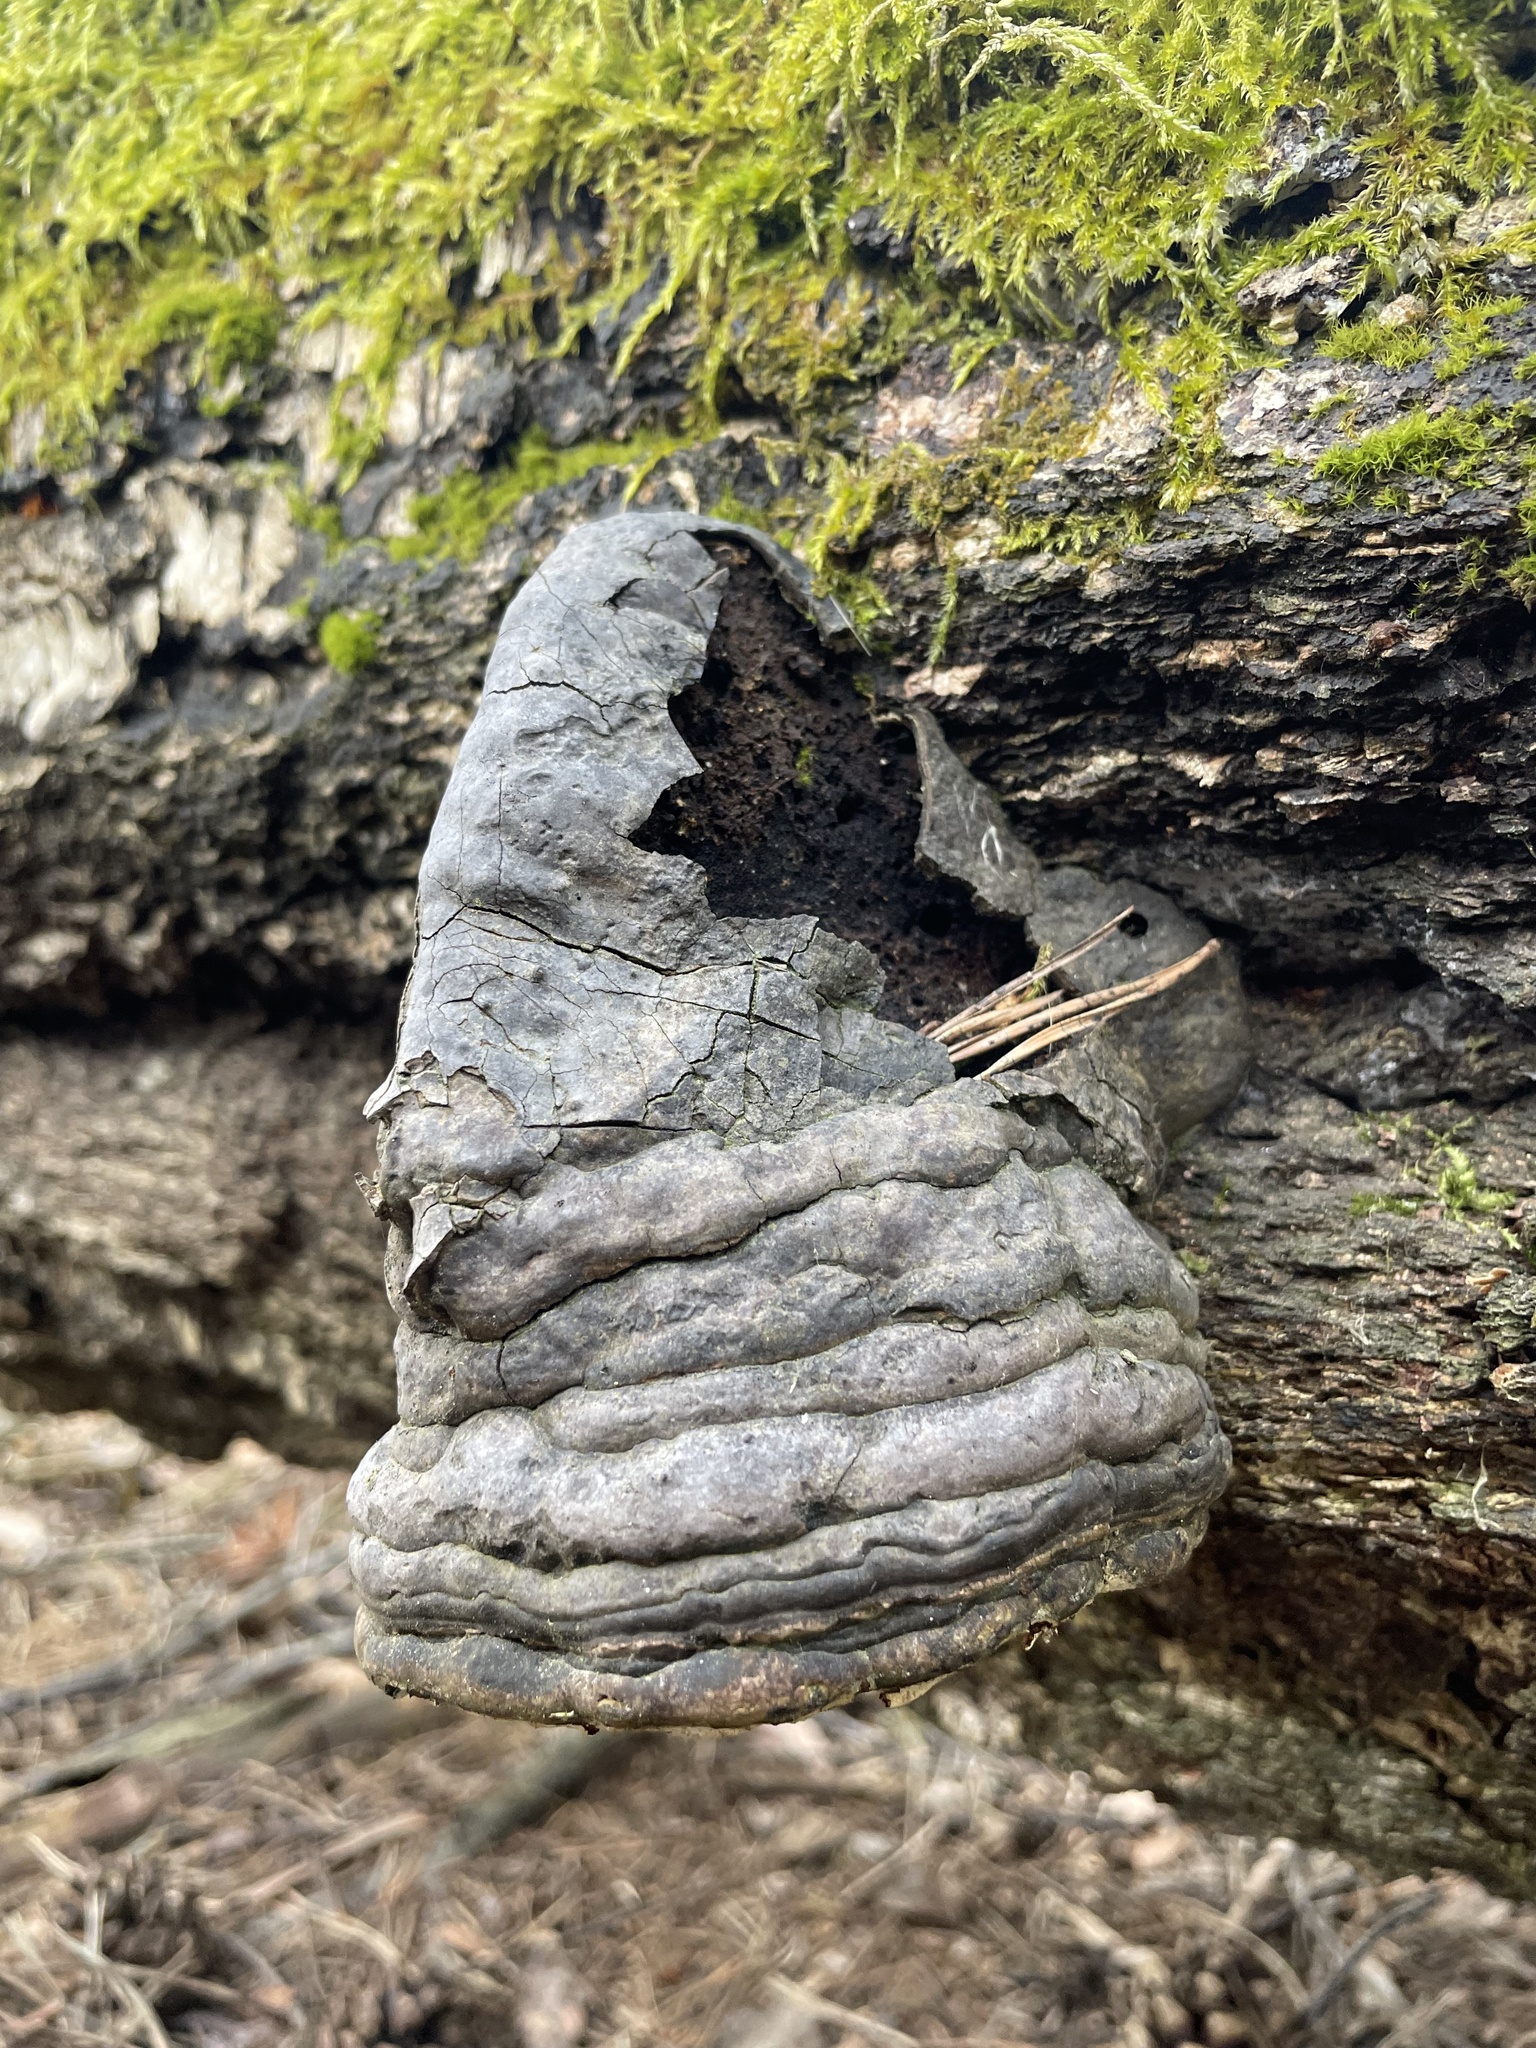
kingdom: Fungi
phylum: Basidiomycota
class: Agaricomycetes
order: Polyporales
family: Polyporaceae
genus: Fomes
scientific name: Fomes fomentarius
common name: Hoof fungus
